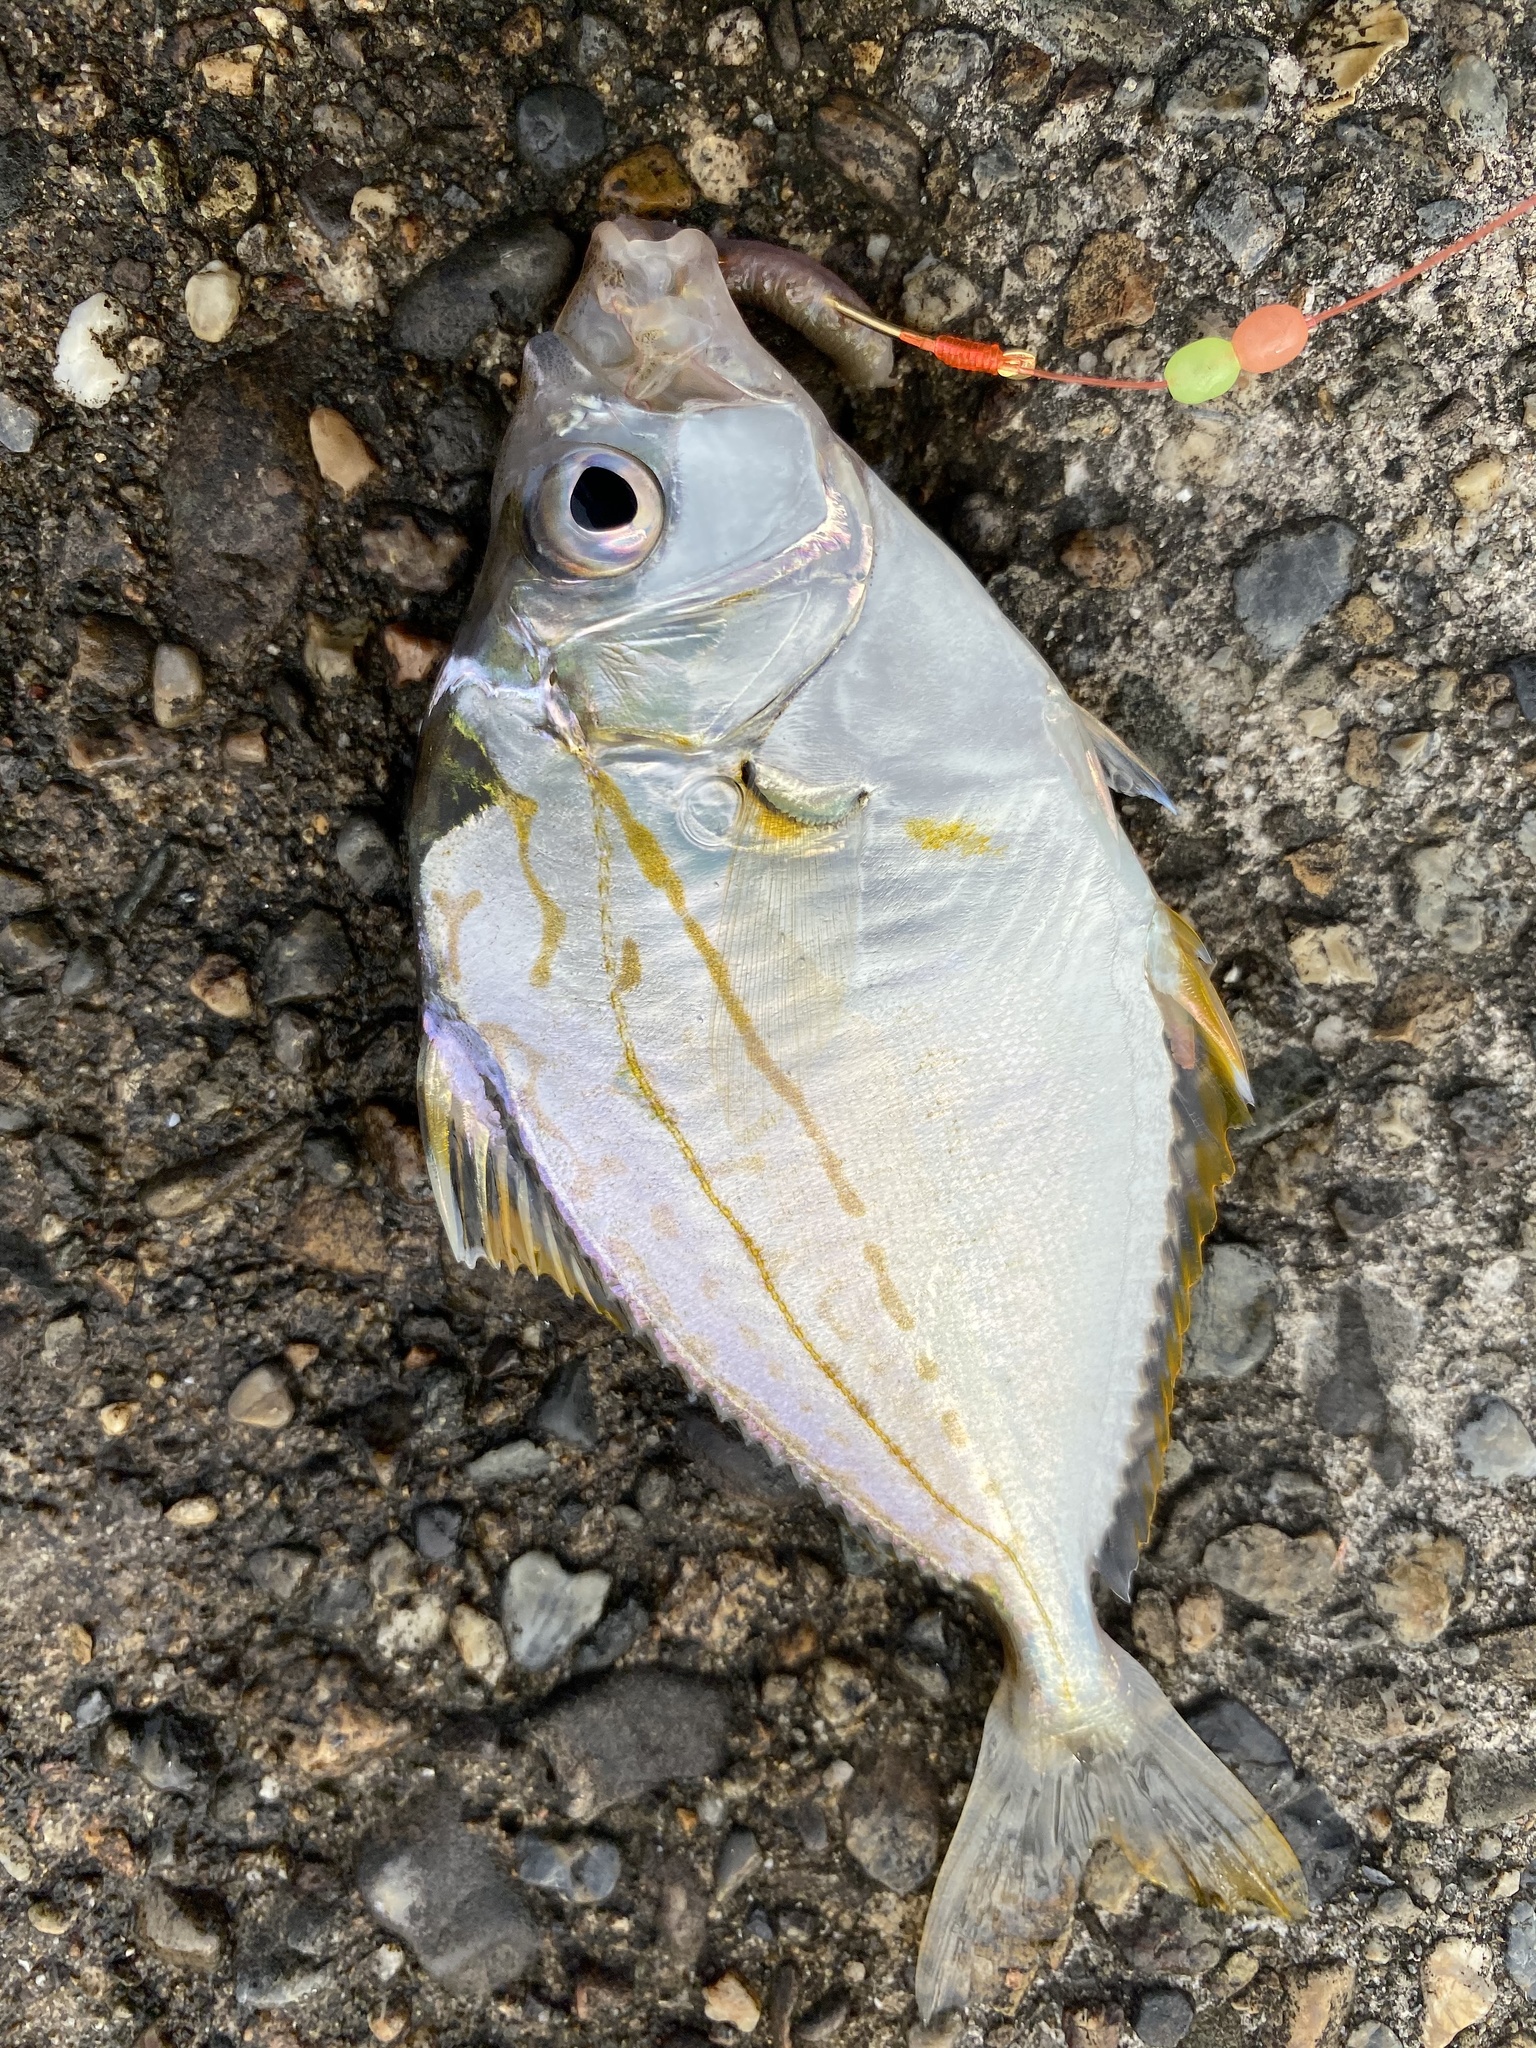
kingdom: Animalia
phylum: Chordata
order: Perciformes
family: Leiognathidae
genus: Nuchequula
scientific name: Nuchequula nuchalis
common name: Spotnape ponyfish
